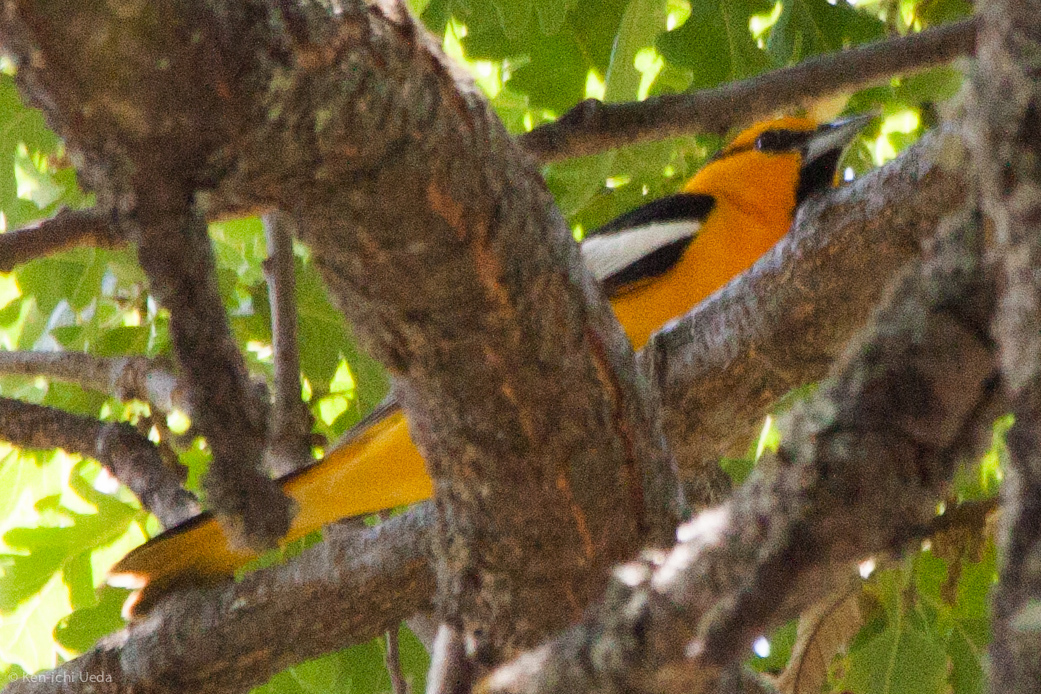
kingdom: Animalia
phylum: Chordata
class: Aves
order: Passeriformes
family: Icteridae
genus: Icterus
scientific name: Icterus bullockii
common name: Bullock's oriole
